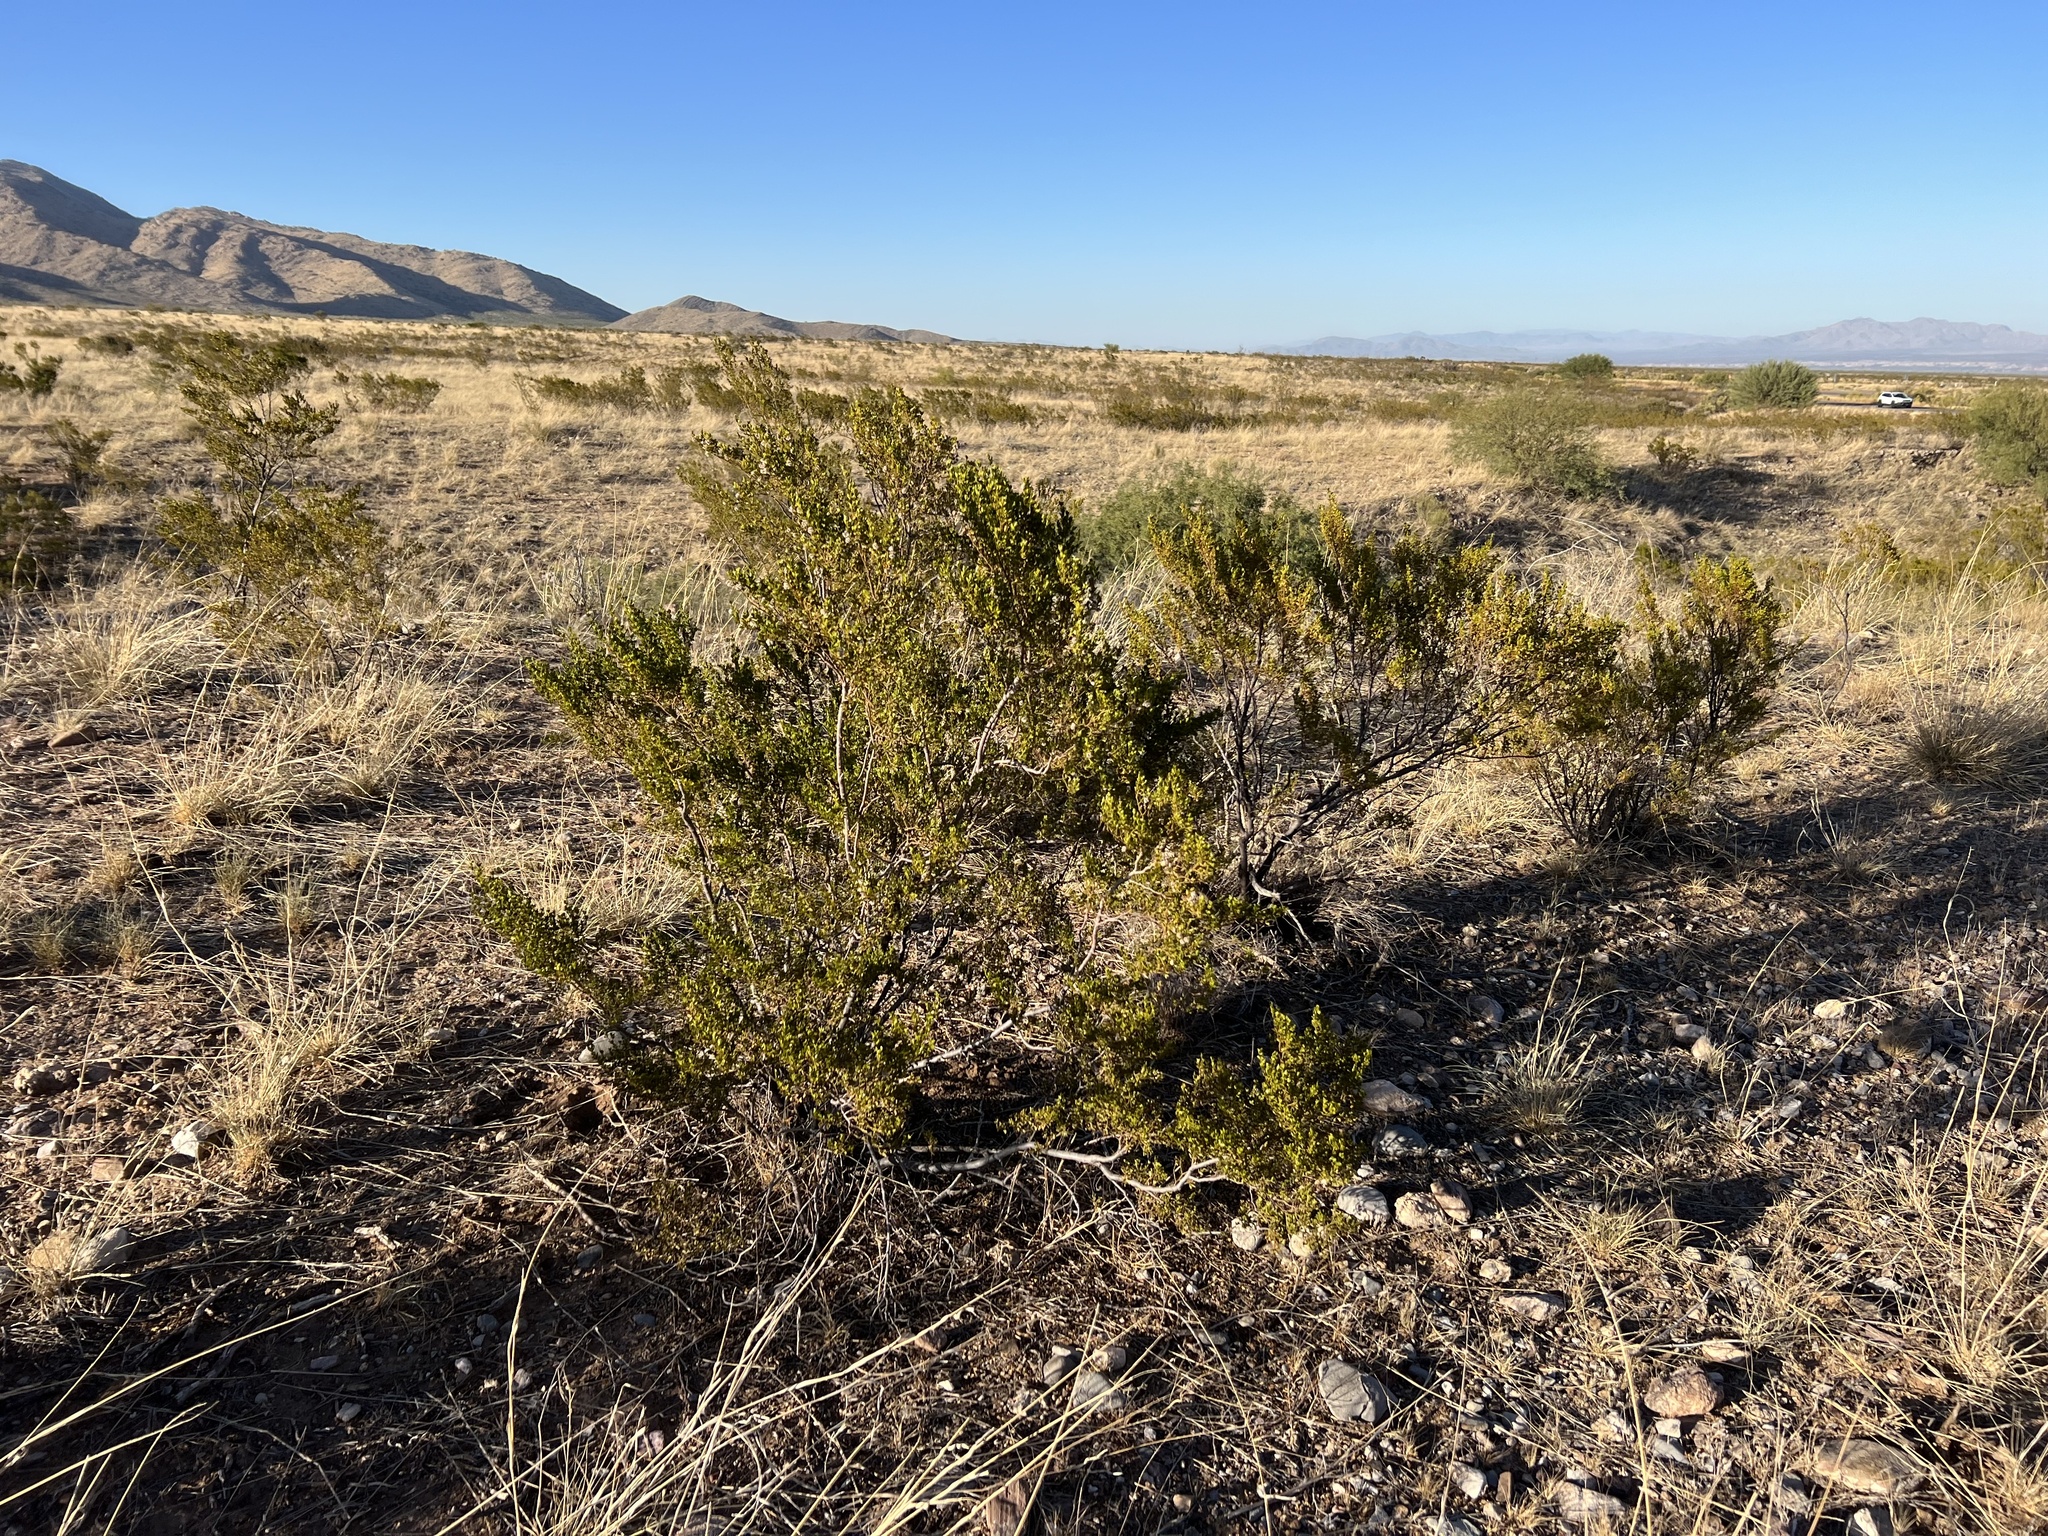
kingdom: Plantae
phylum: Tracheophyta
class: Magnoliopsida
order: Zygophyllales
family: Zygophyllaceae
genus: Larrea
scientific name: Larrea tridentata
